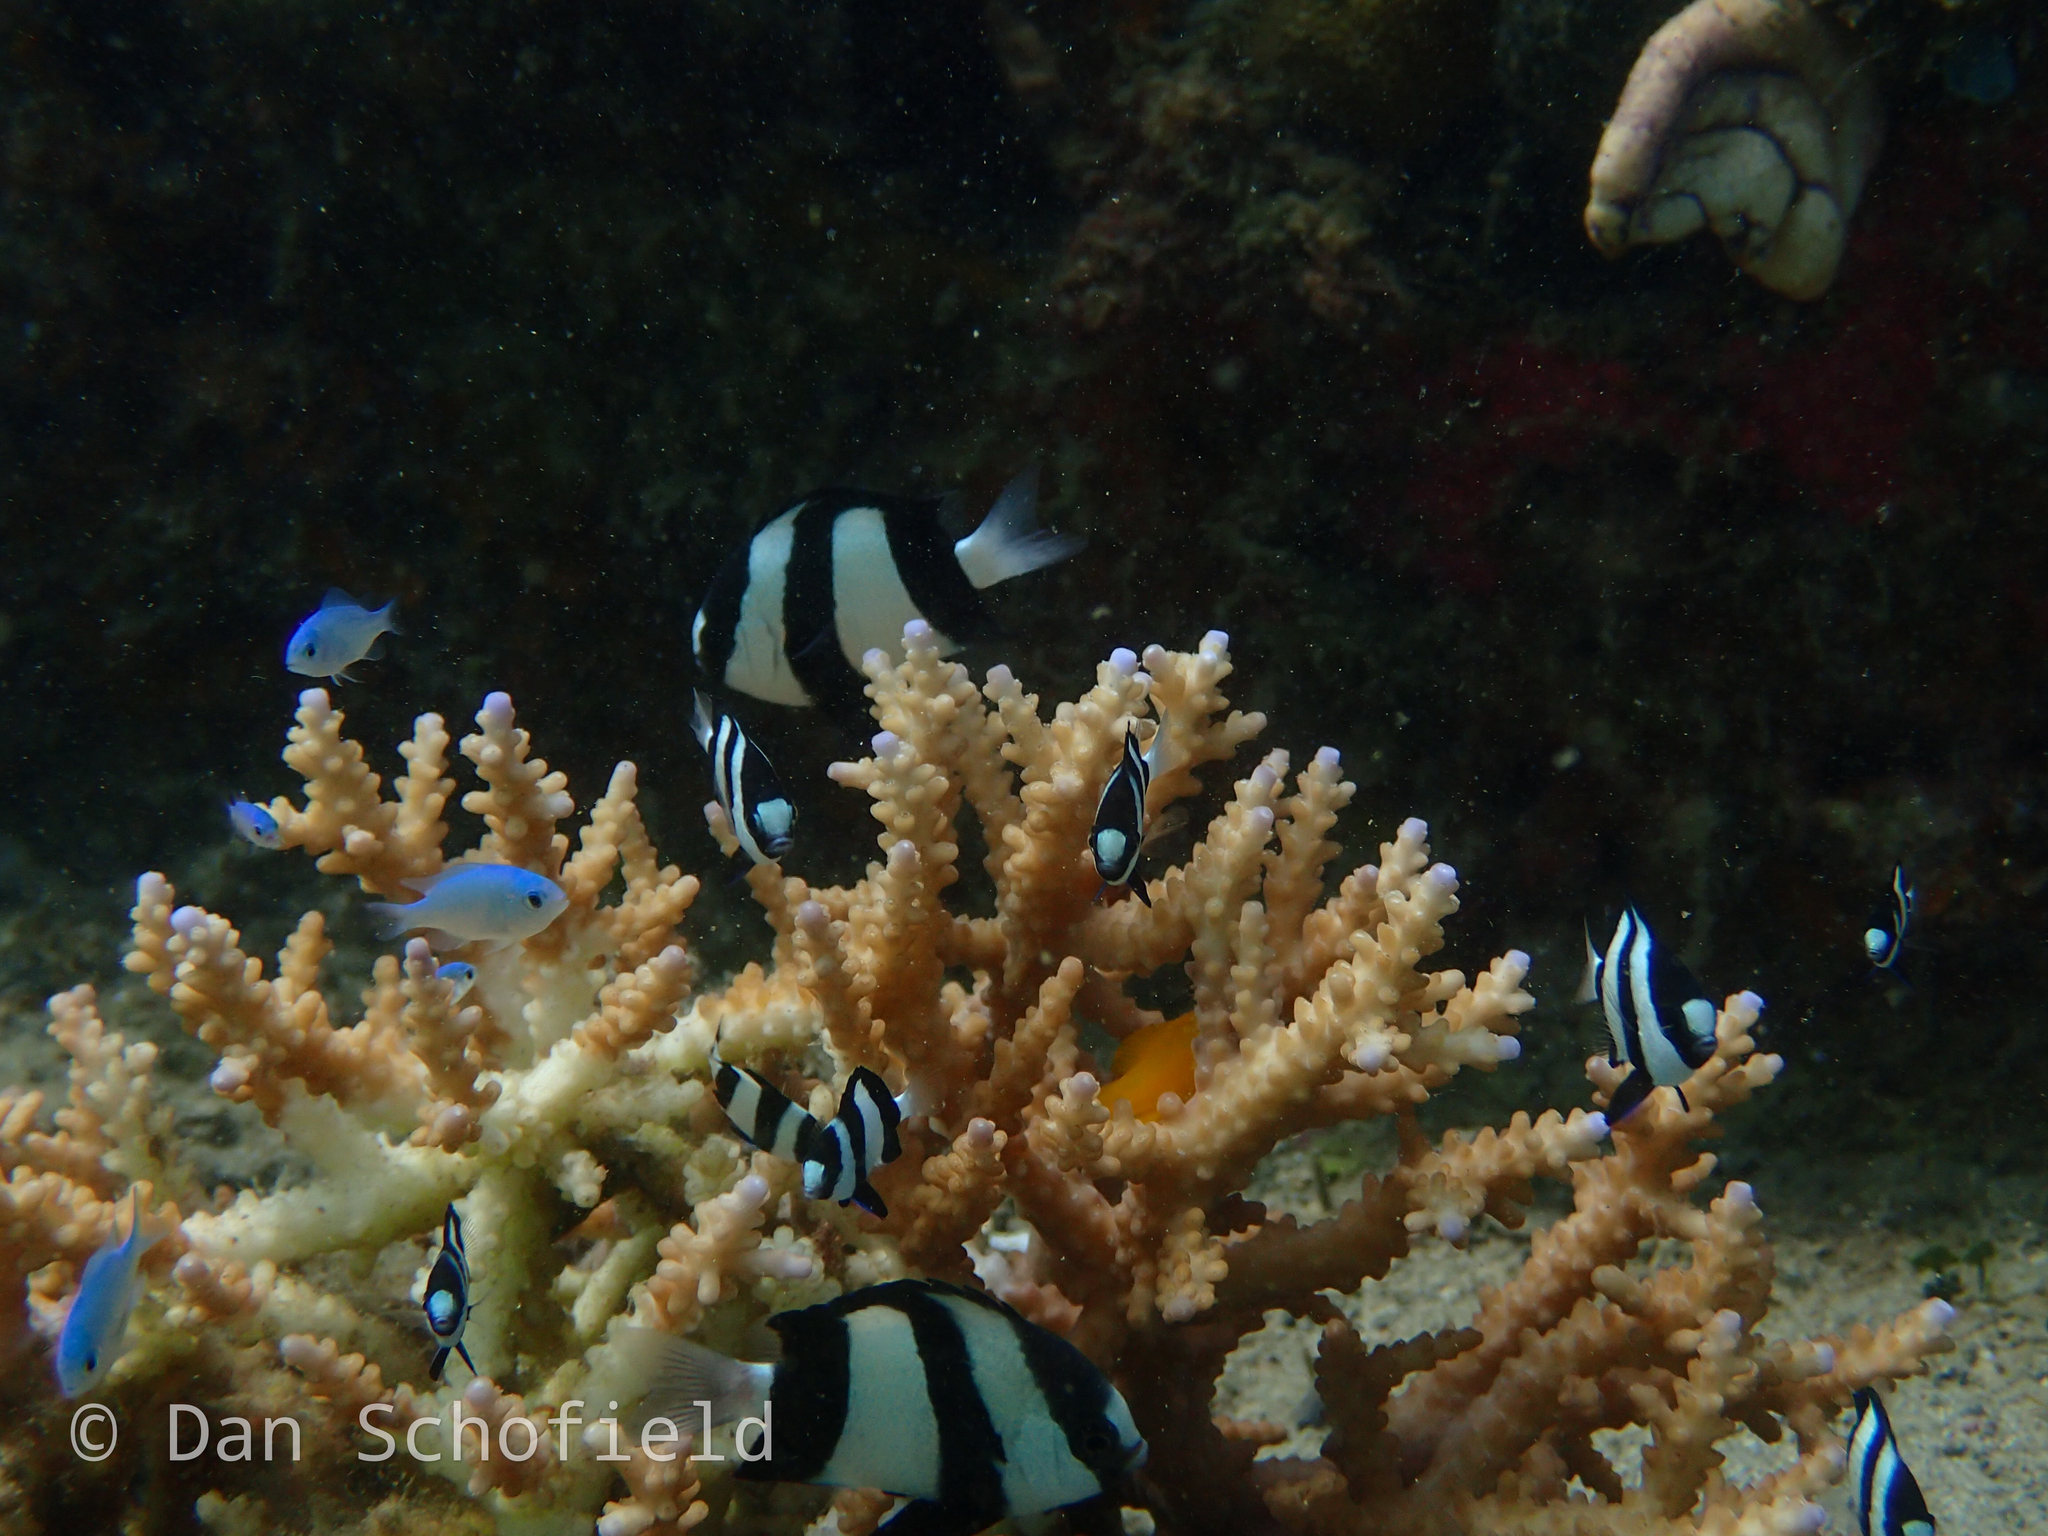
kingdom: Animalia
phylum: Chordata
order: Perciformes
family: Pomacentridae
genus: Dascyllus
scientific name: Dascyllus aruanus
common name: Humbug dascyllus
